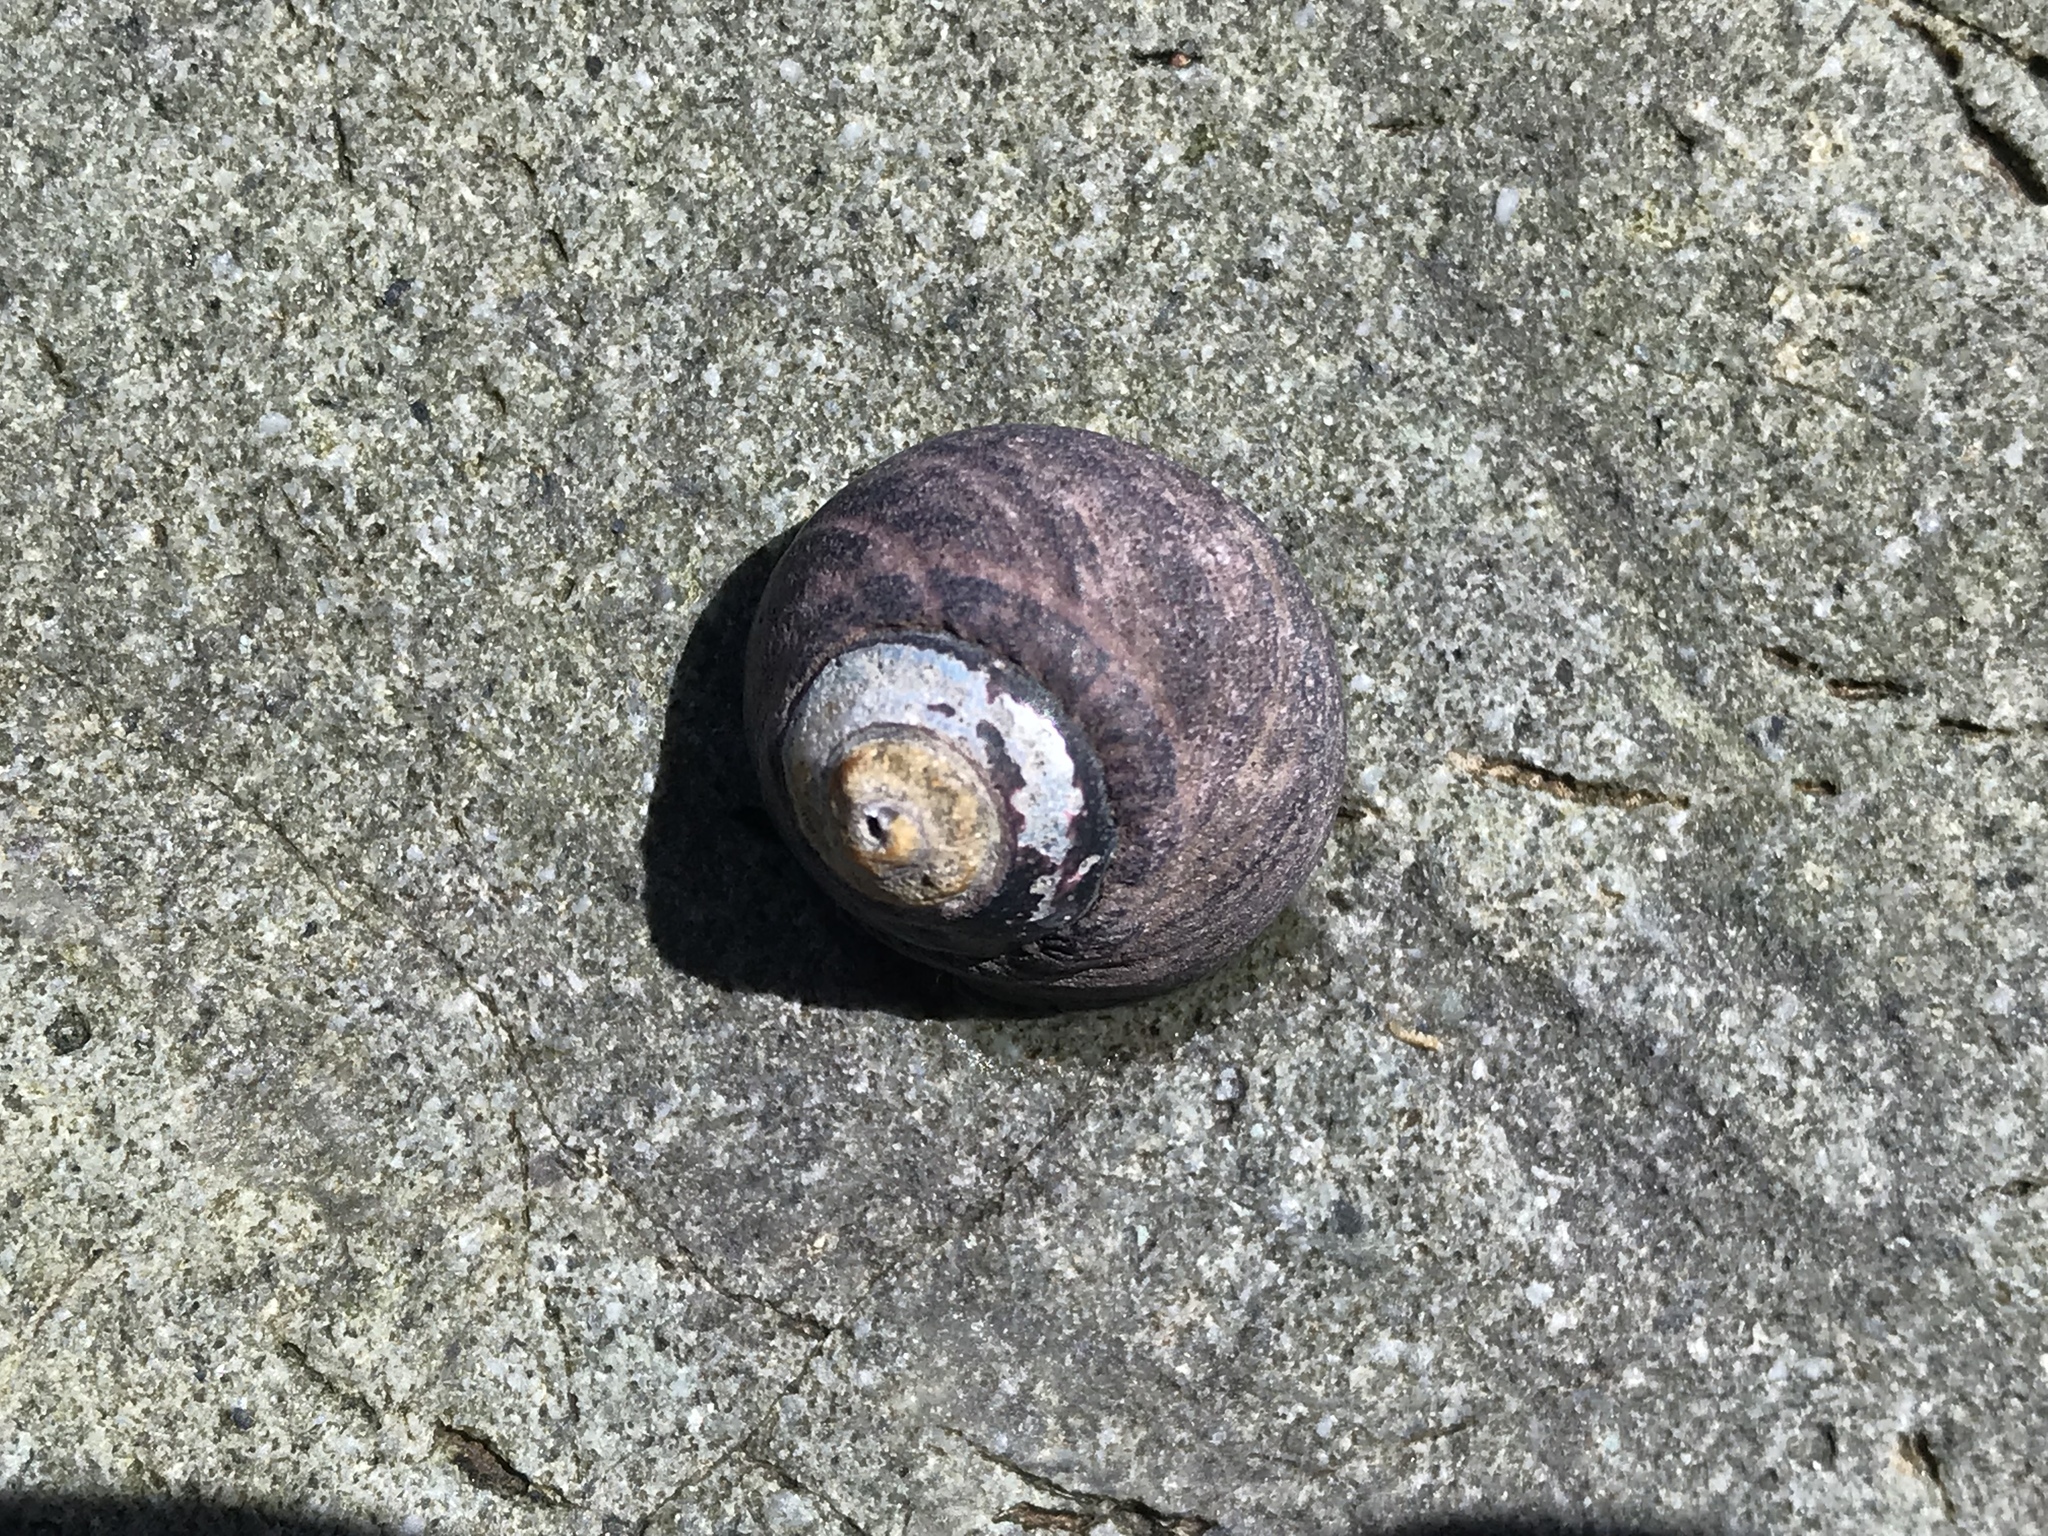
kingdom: Animalia
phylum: Mollusca
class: Gastropoda
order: Trochida
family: Tegulidae
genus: Tegula
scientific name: Tegula funebralis
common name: Black tegula
